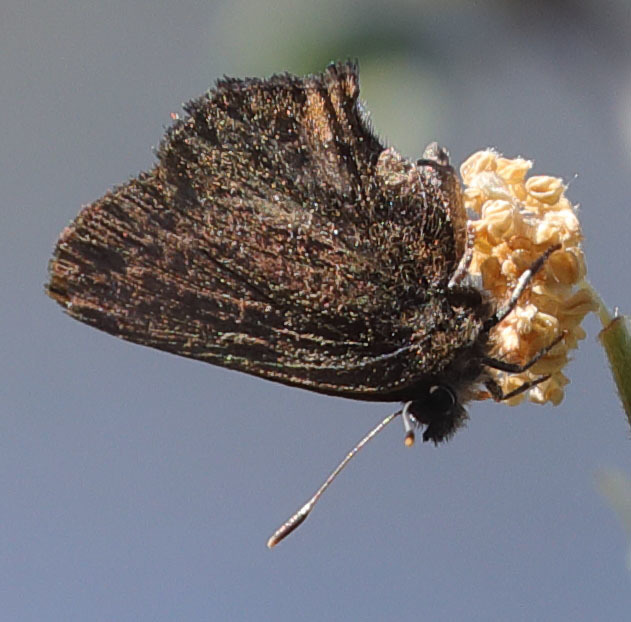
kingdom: Animalia
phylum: Arthropoda
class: Insecta
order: Lepidoptera
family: Lycaenidae
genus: Incisalia
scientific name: Incisalia irioides
